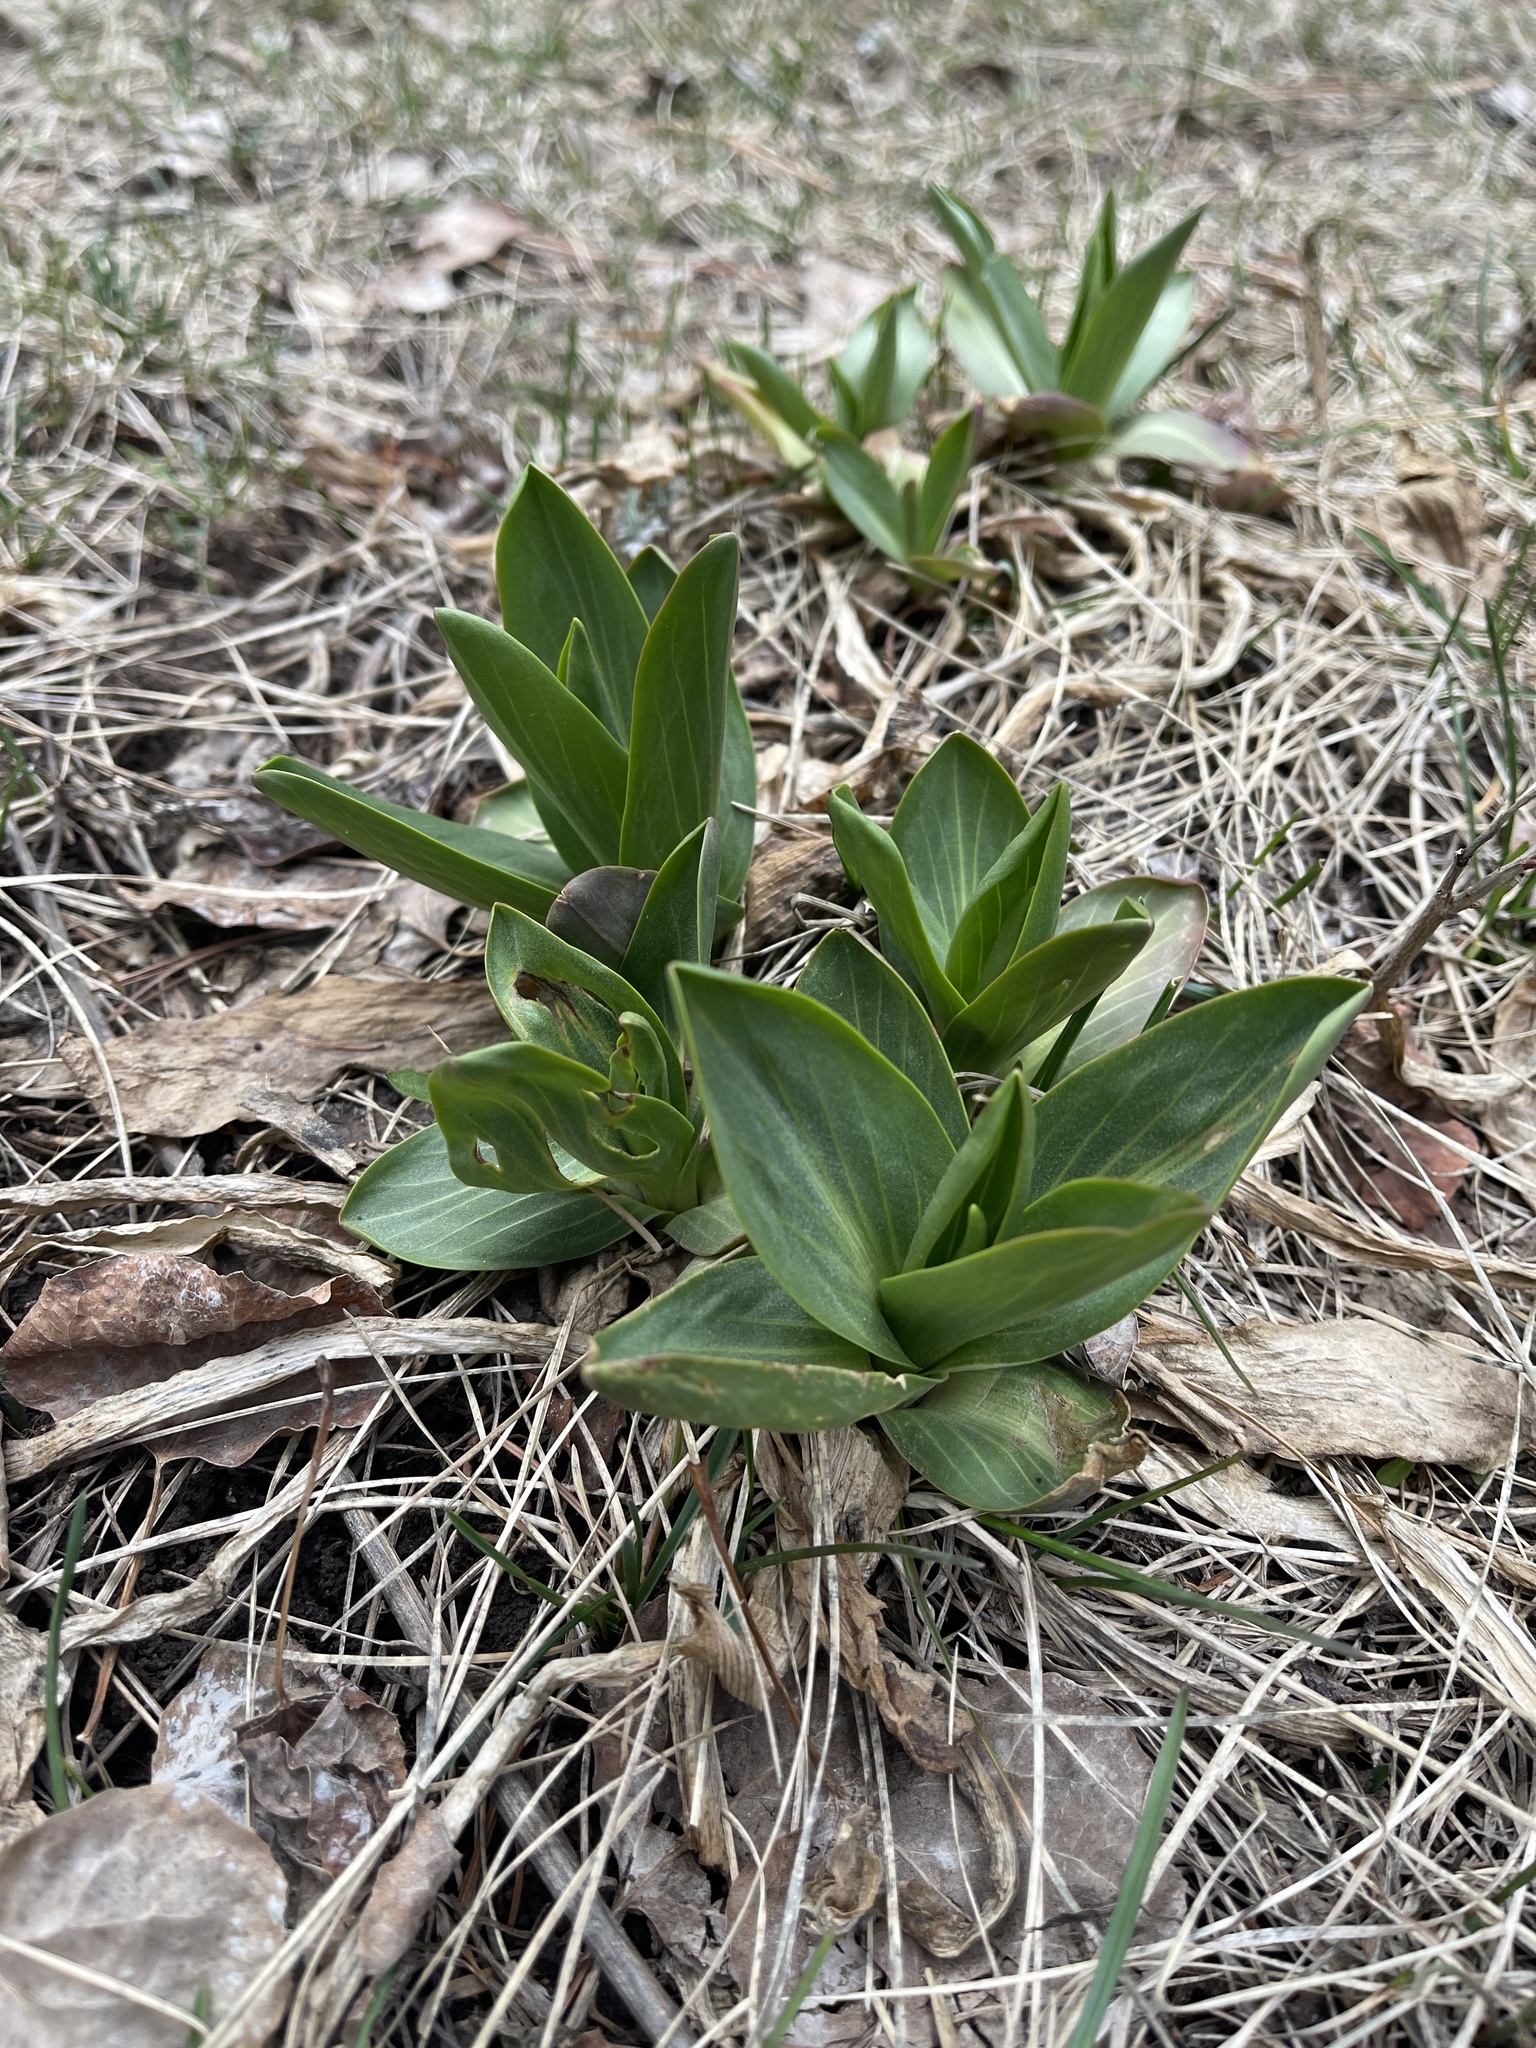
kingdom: Plantae
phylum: Tracheophyta
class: Liliopsida
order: Liliales
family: Melanthiaceae
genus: Veratrum
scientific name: Veratrum californicum
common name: California veratrum
